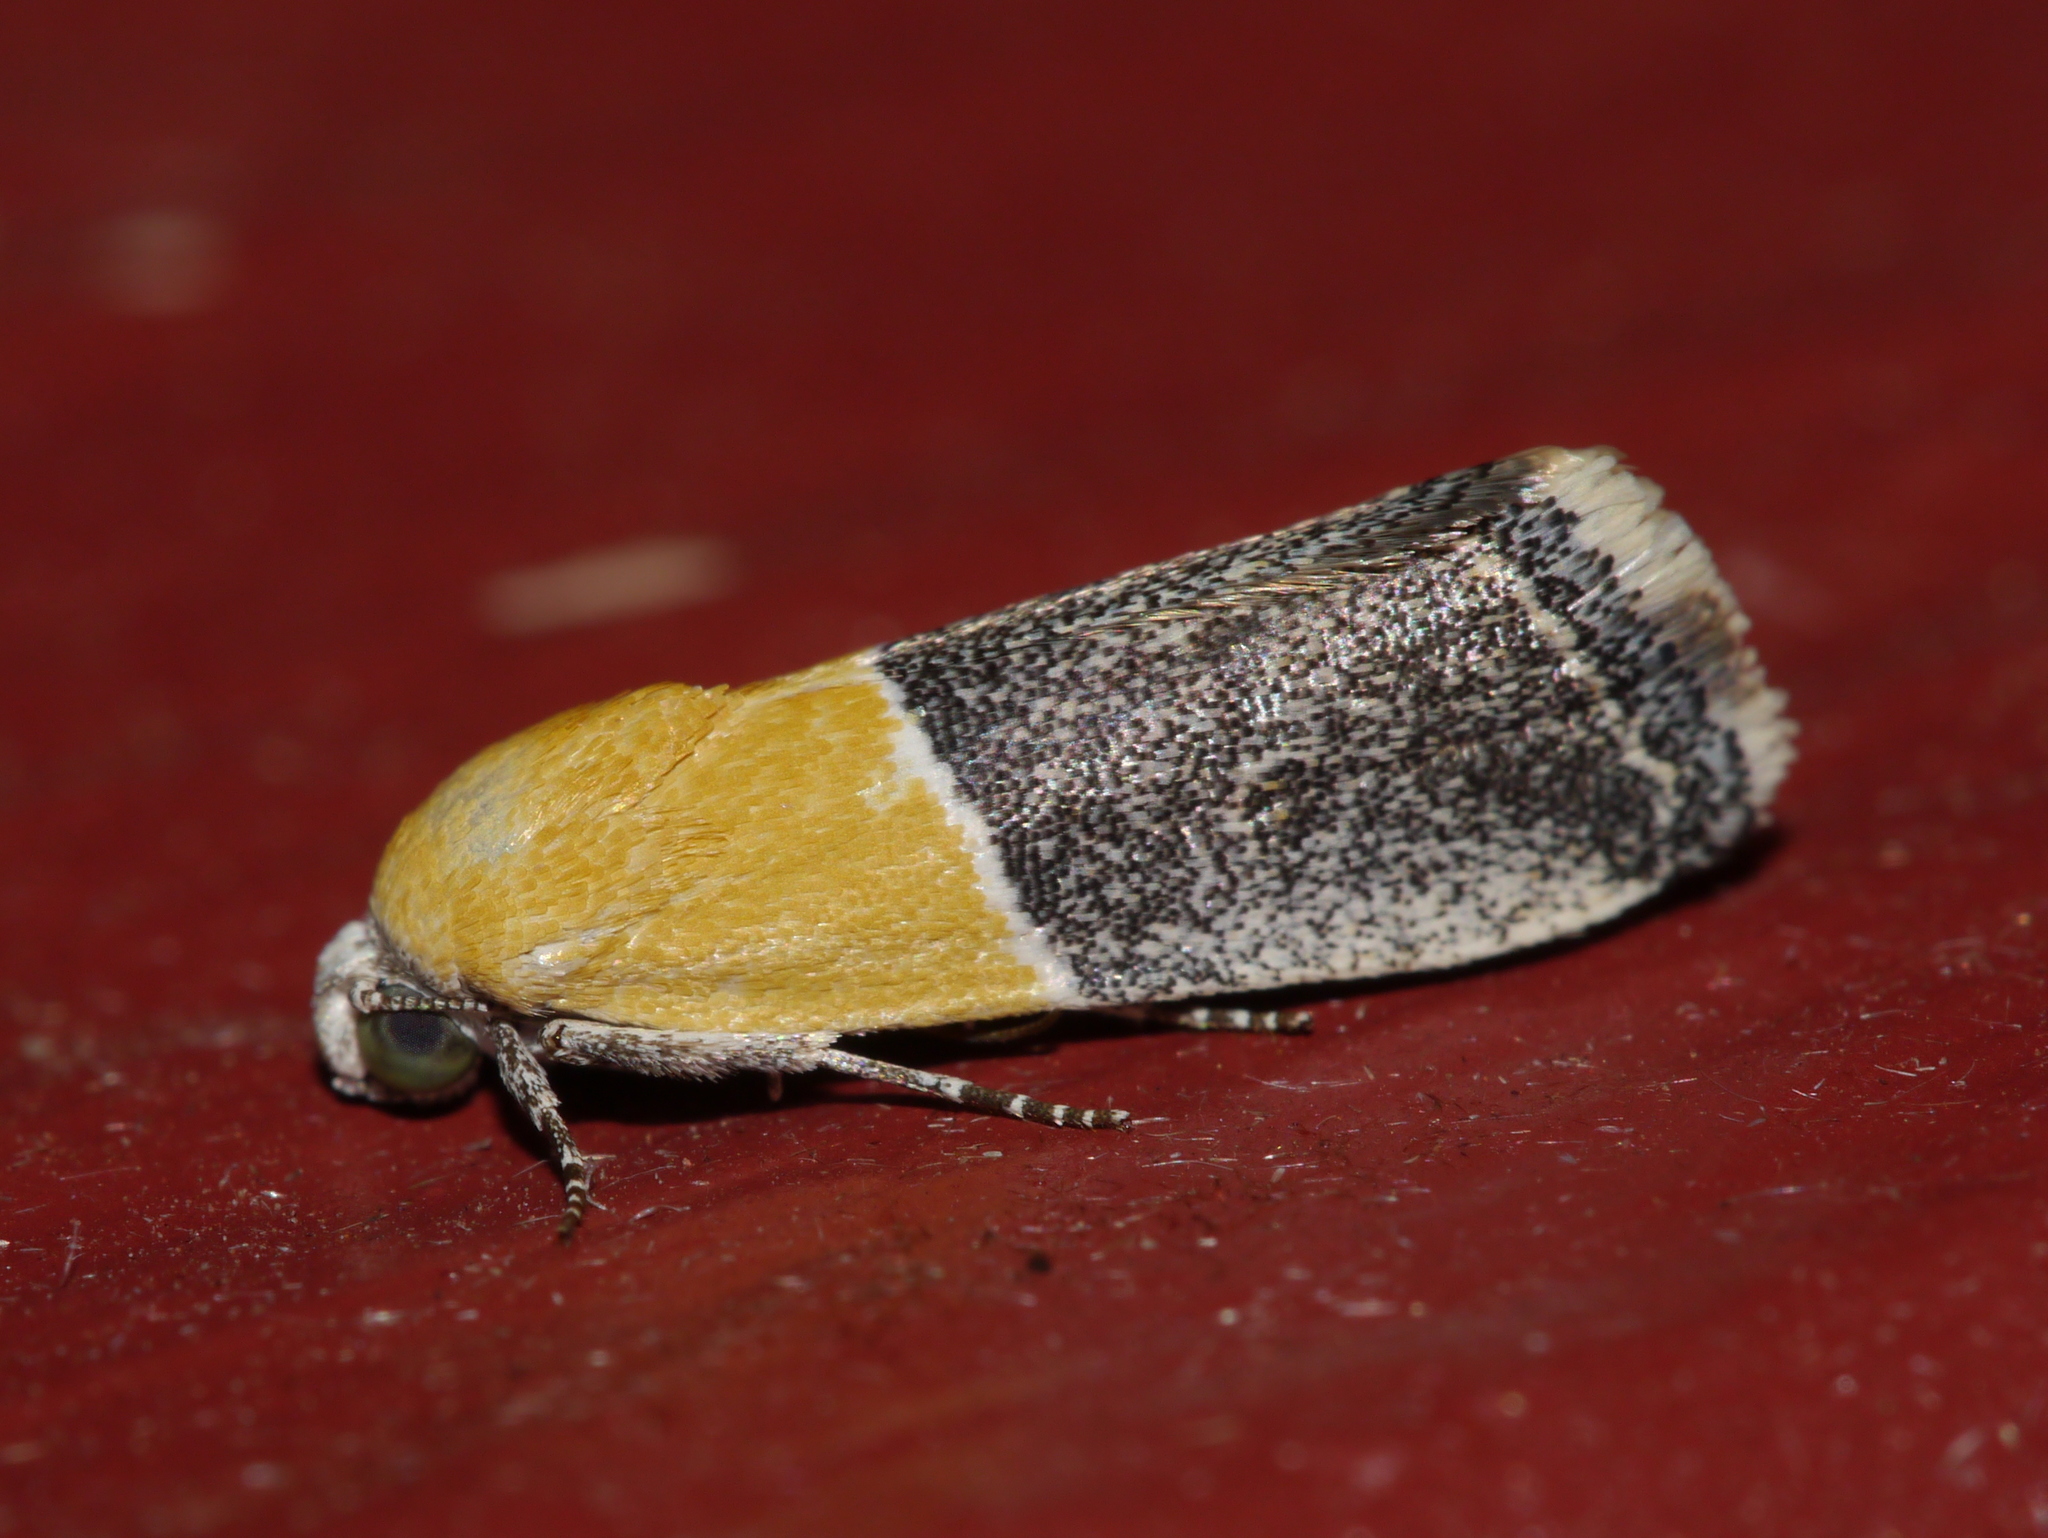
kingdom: Animalia
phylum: Arthropoda
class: Insecta
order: Lepidoptera
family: Noctuidae
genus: Acontia
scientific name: Acontia clausula
